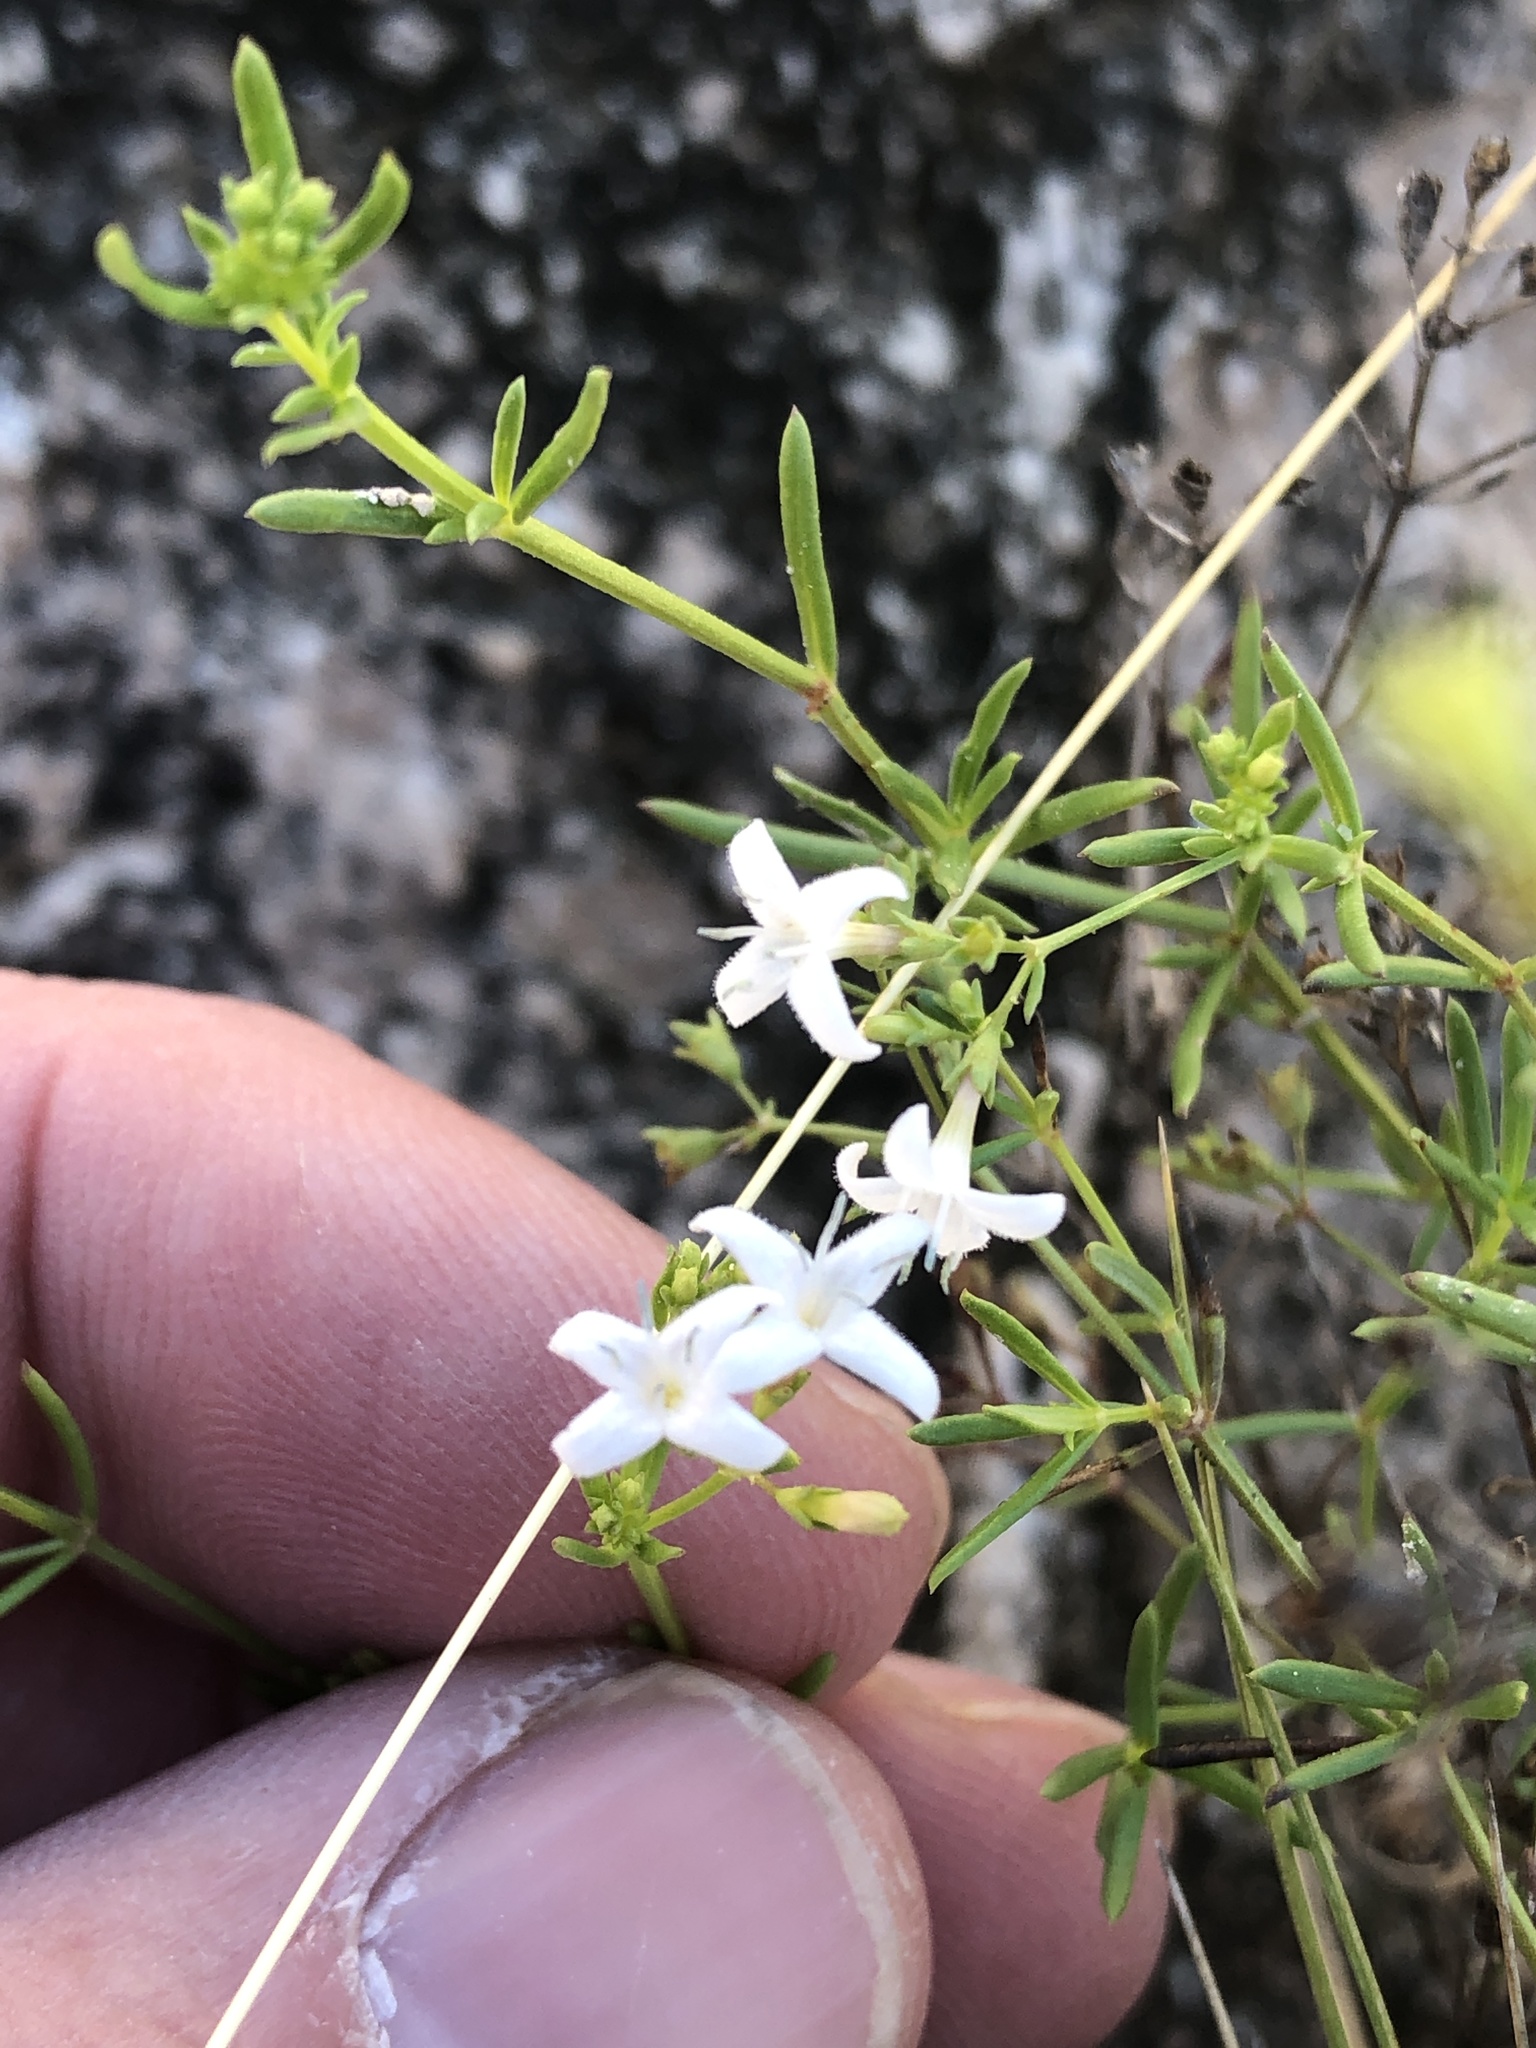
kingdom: Plantae
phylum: Tracheophyta
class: Magnoliopsida
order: Gentianales
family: Rubiaceae
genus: Stenaria
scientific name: Stenaria nigricans
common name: Diamondflowers
